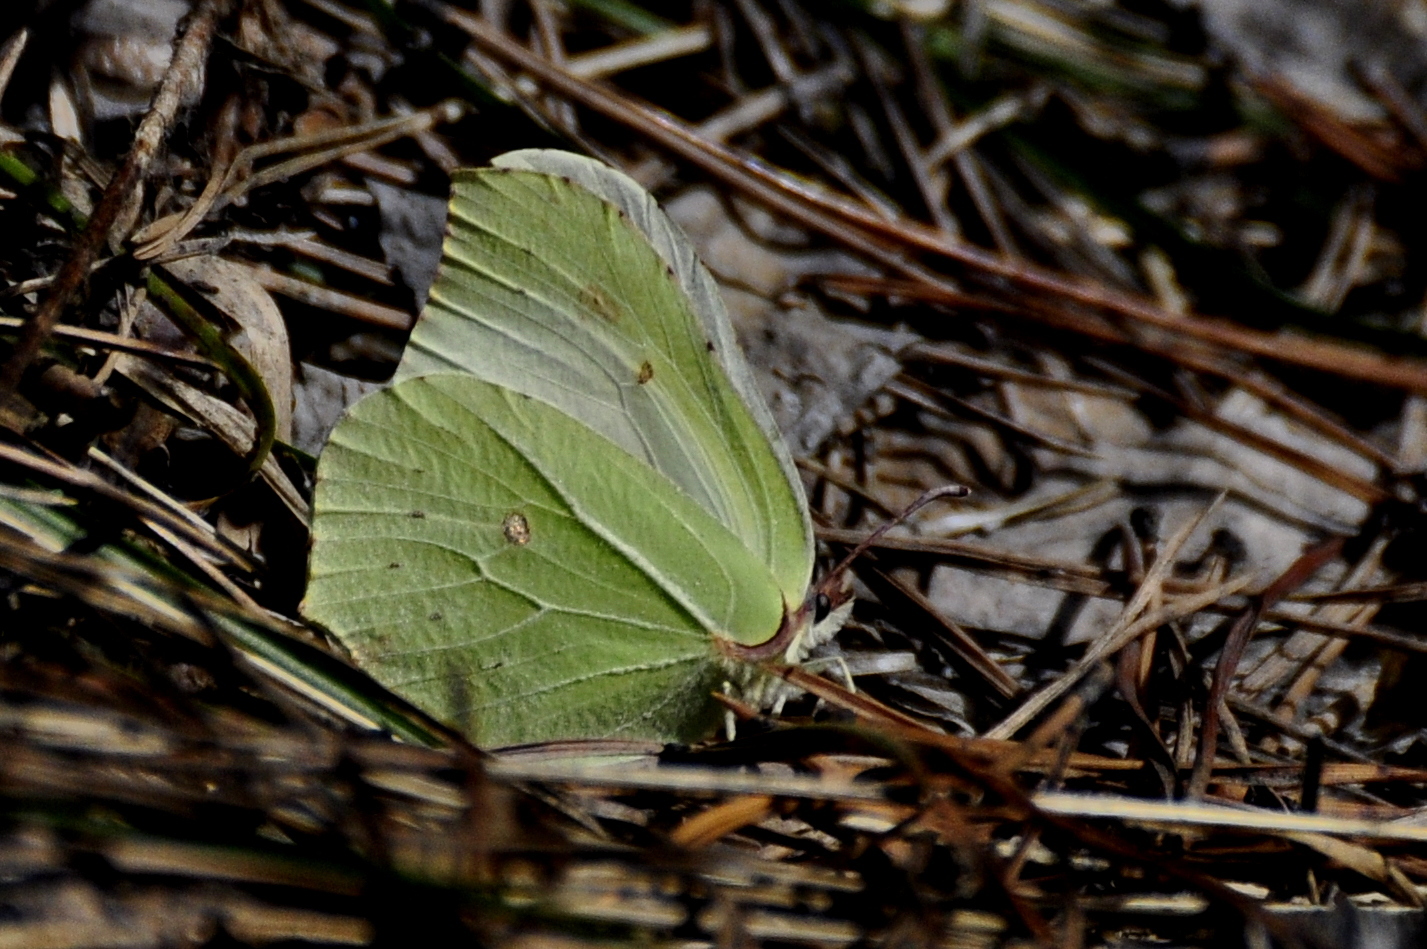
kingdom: Animalia
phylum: Arthropoda
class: Insecta
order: Lepidoptera
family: Pieridae
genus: Gonepteryx
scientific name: Gonepteryx rhamni
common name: Brimstone
